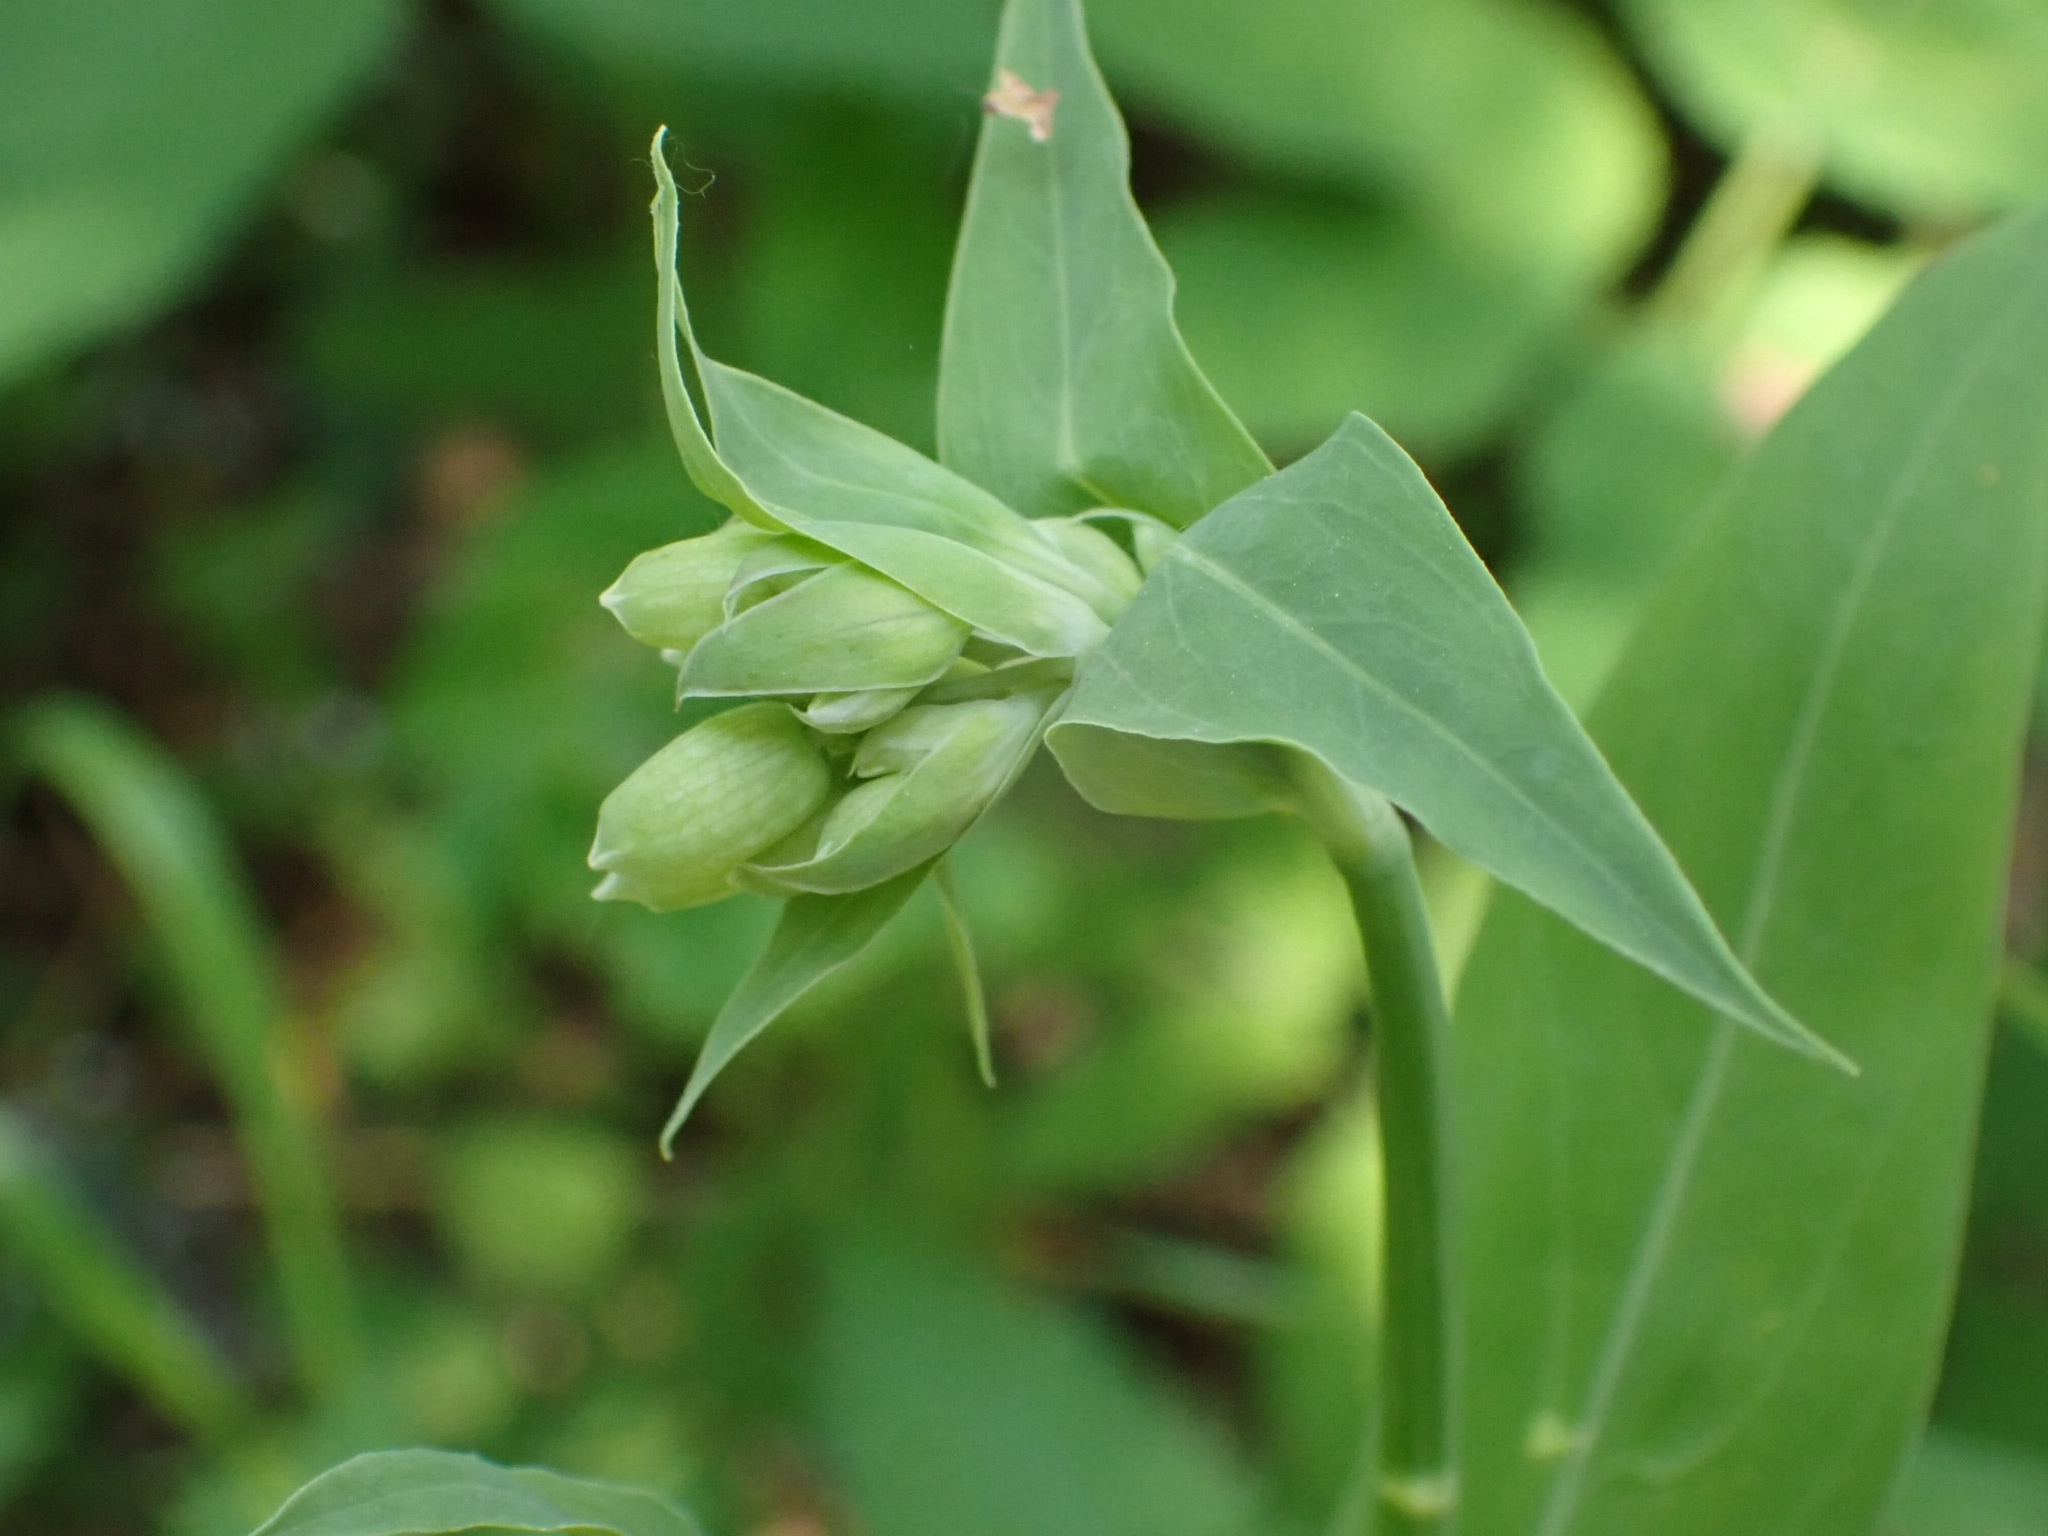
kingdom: Plantae
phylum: Tracheophyta
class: Magnoliopsida
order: Caryophyllales
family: Caryophyllaceae
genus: Silene
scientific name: Silene vulgaris
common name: Bladder campion
